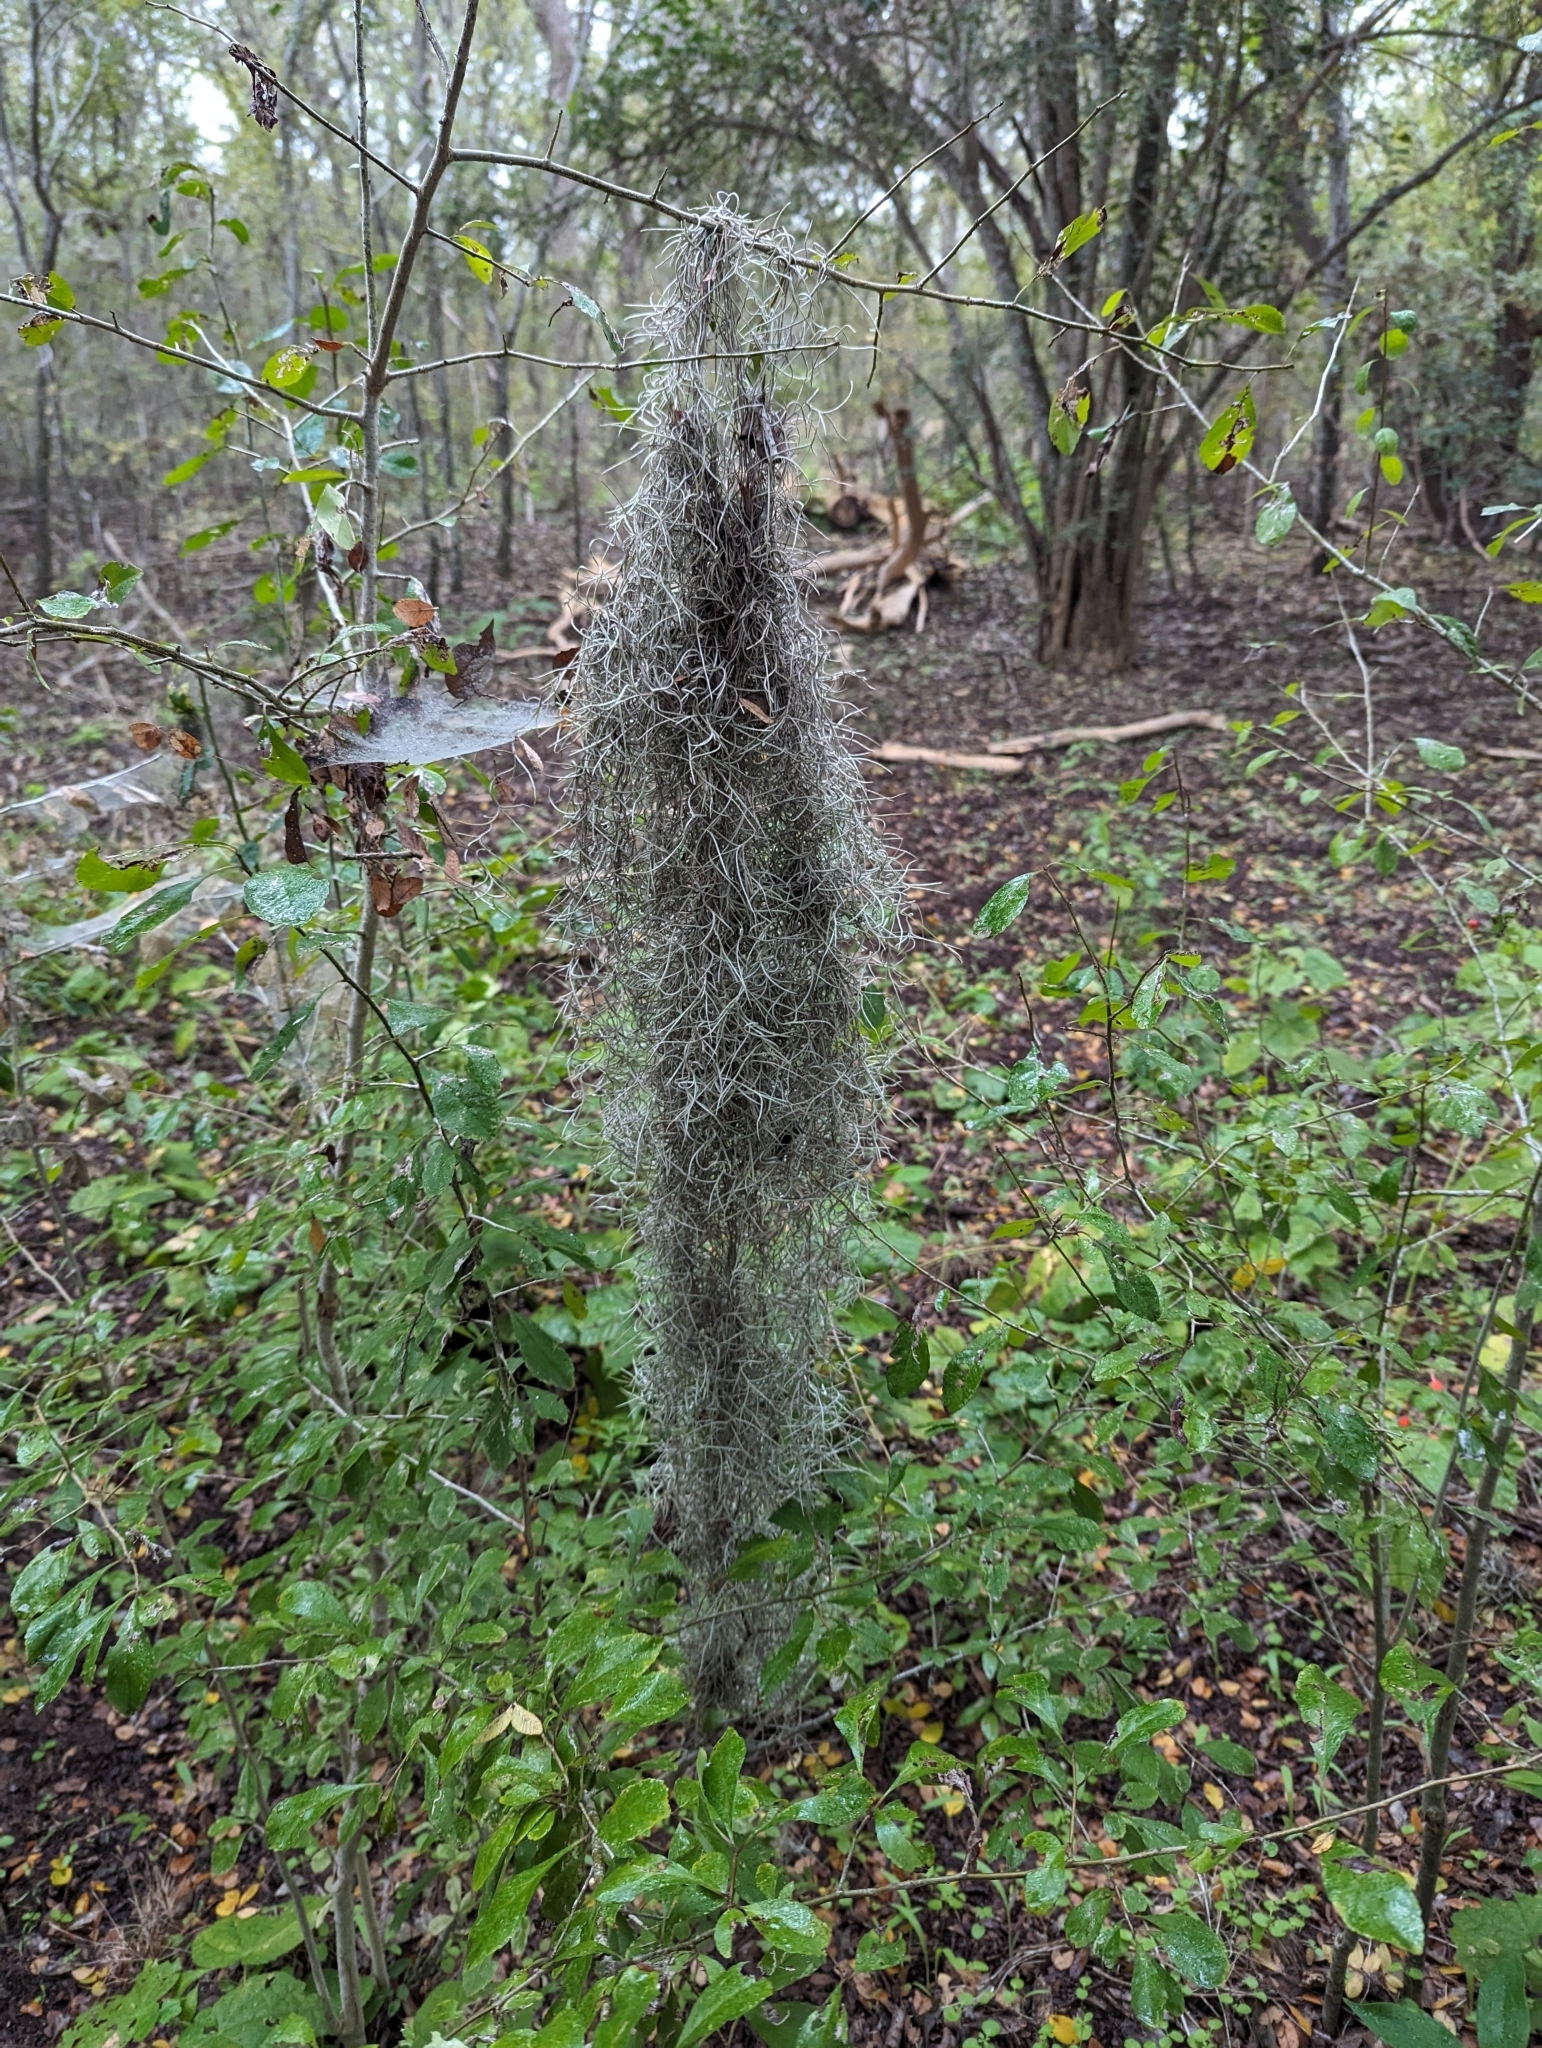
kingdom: Plantae
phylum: Tracheophyta
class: Liliopsida
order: Poales
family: Bromeliaceae
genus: Tillandsia
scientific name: Tillandsia usneoides
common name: Spanish moss
